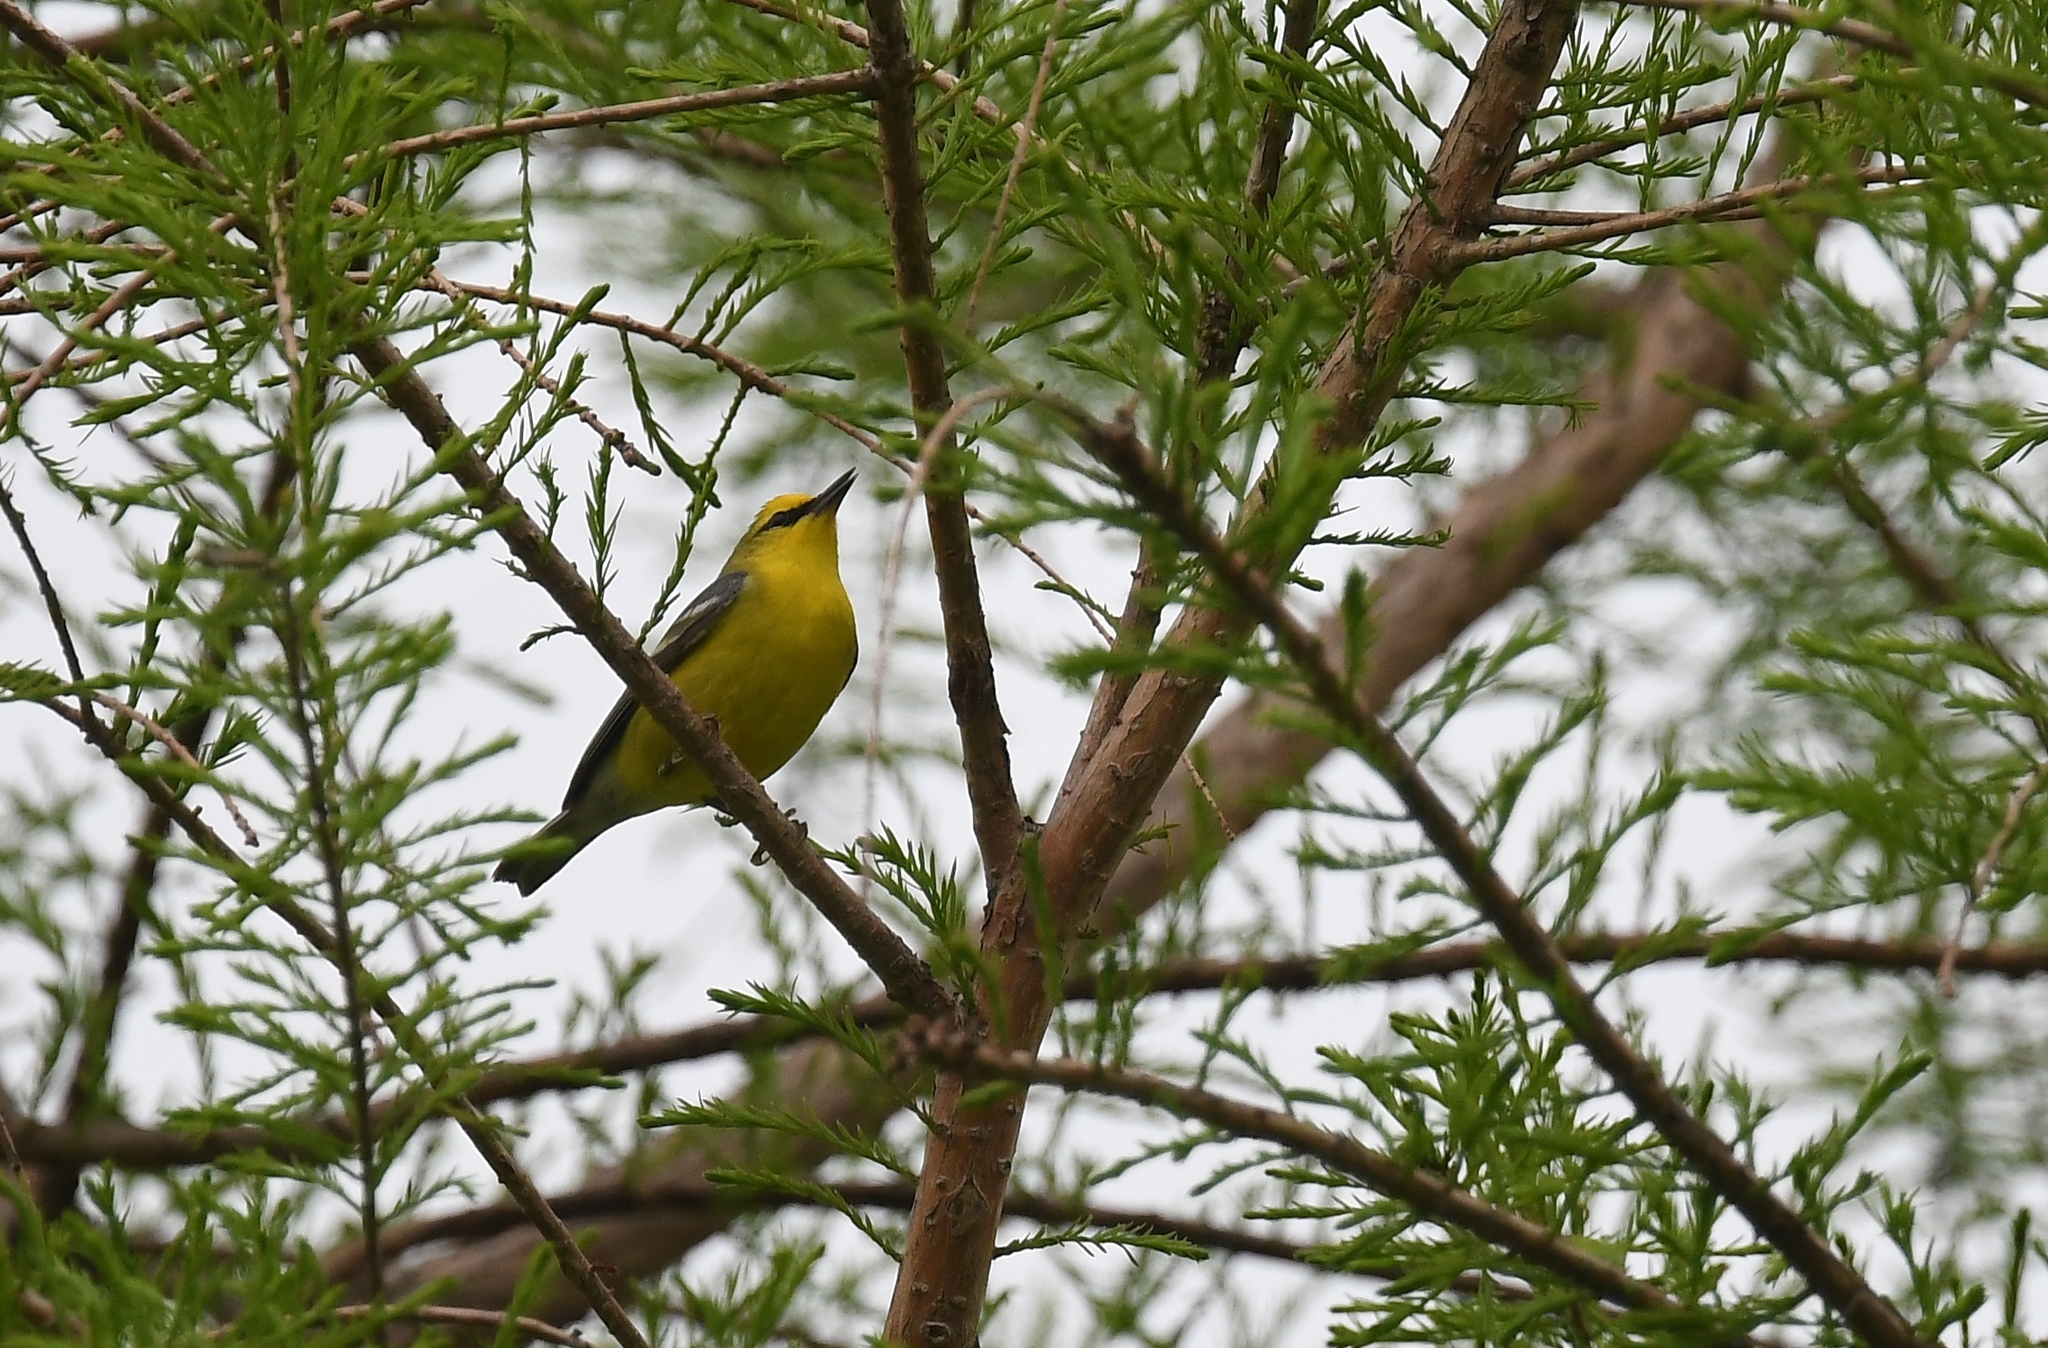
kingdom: Animalia
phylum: Chordata
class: Aves
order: Passeriformes
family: Parulidae
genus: Vermivora
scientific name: Vermivora cyanoptera
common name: Blue-winged warbler
